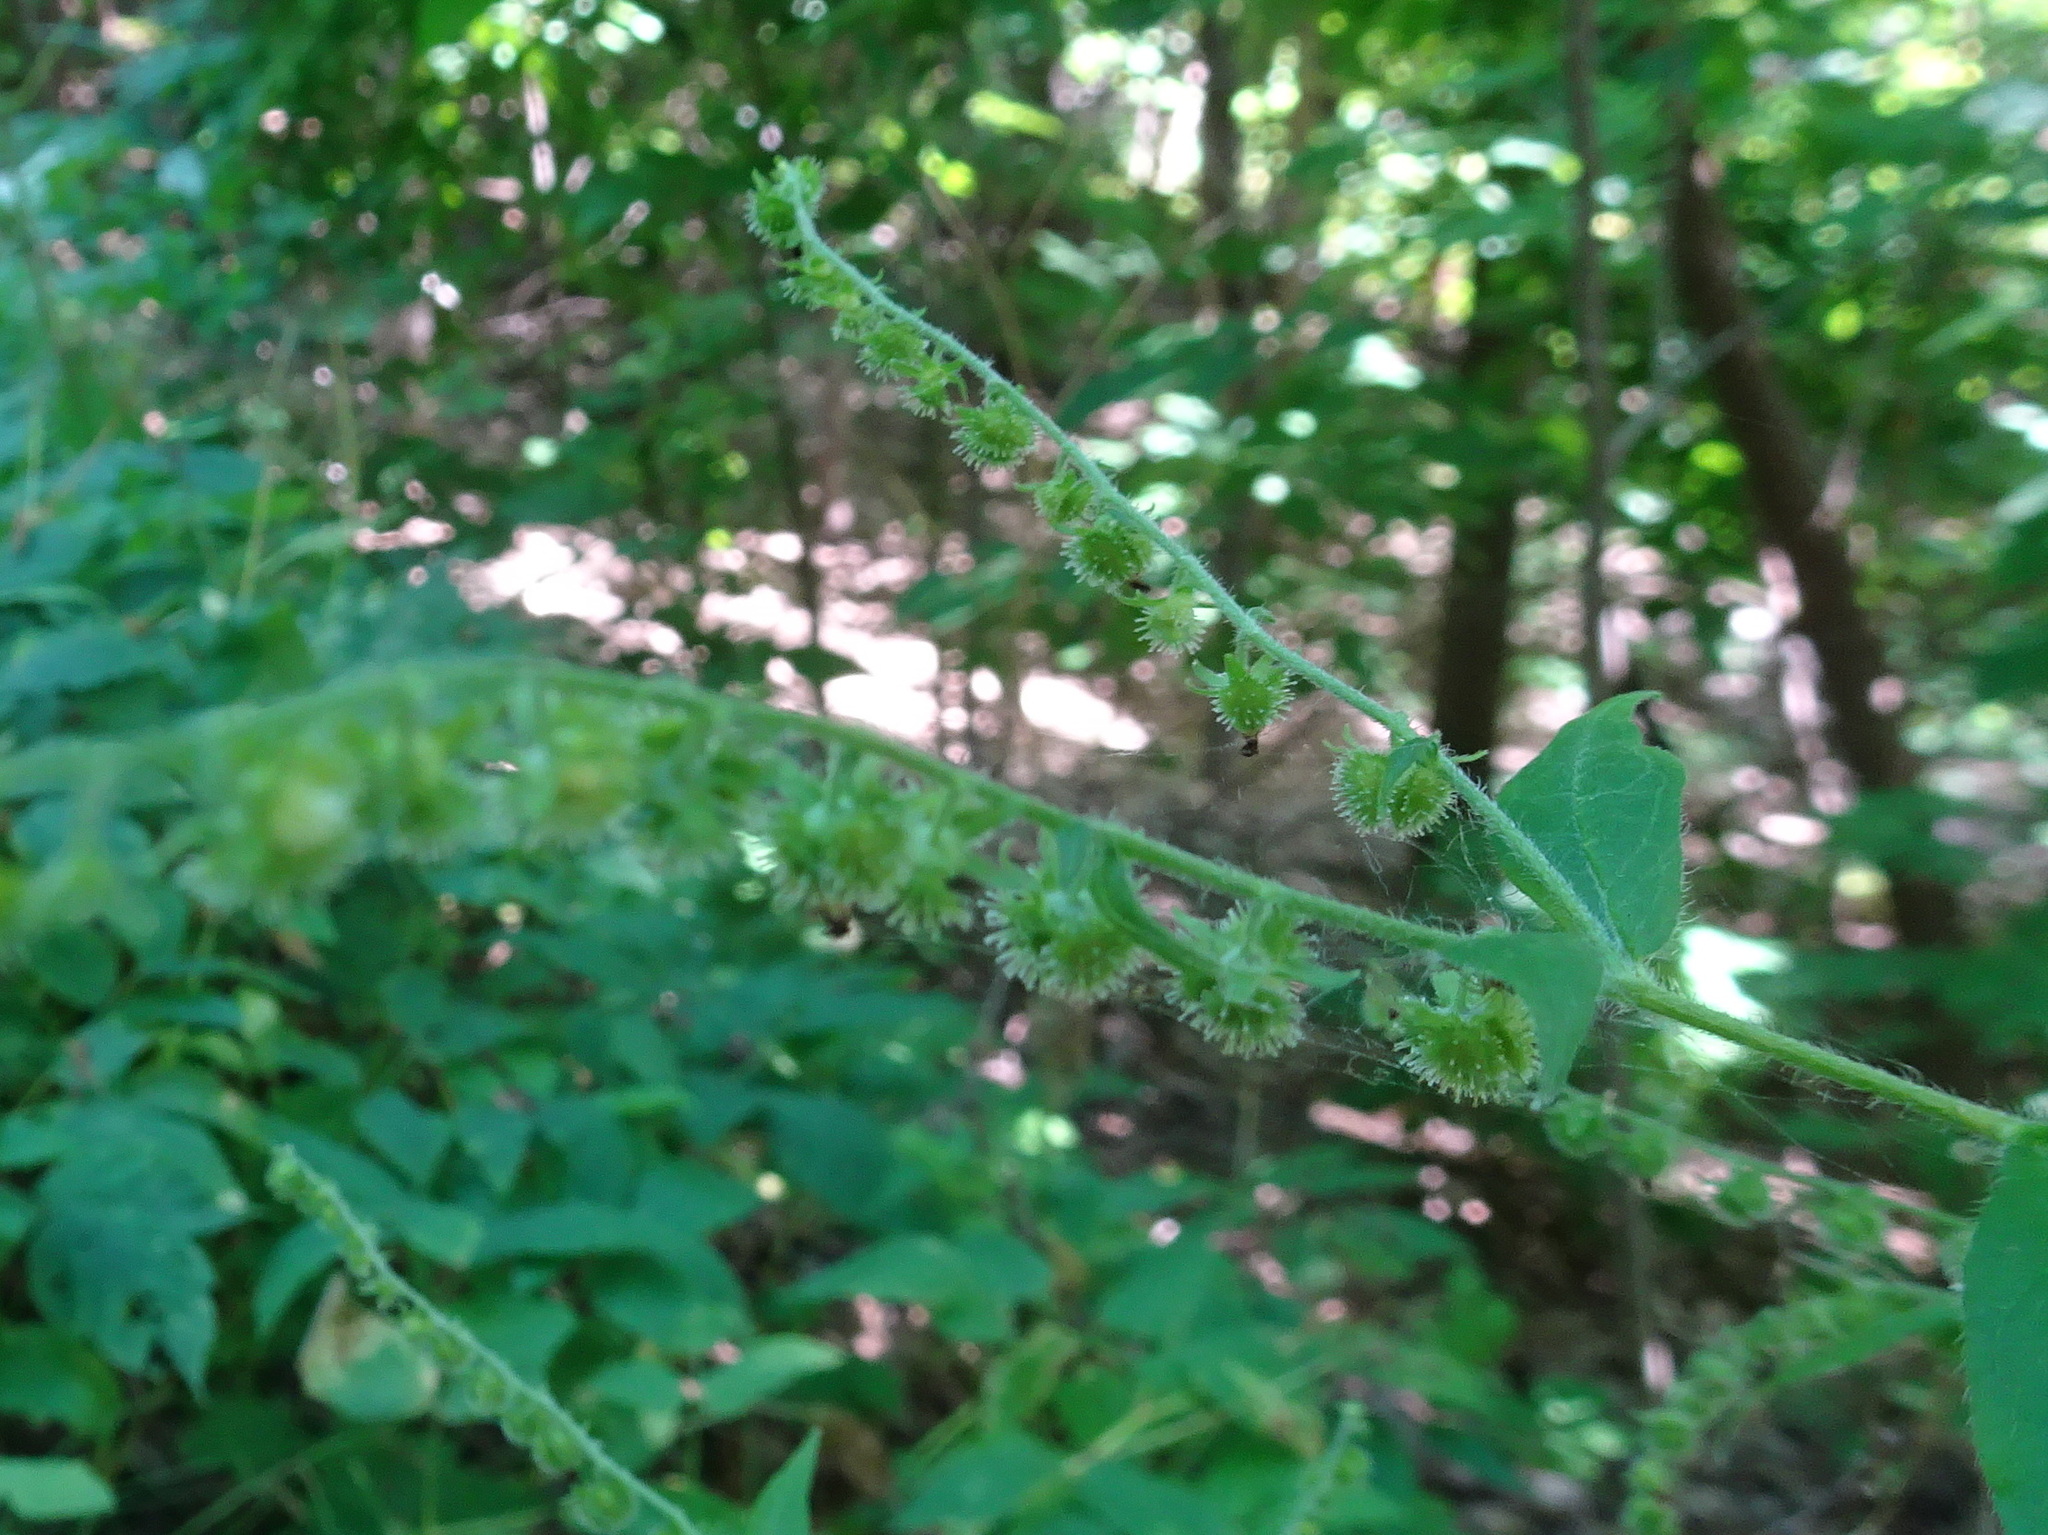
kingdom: Plantae
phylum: Tracheophyta
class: Magnoliopsida
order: Boraginales
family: Boraginaceae
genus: Hackelia
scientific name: Hackelia virginiana
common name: Beggar's-lice
